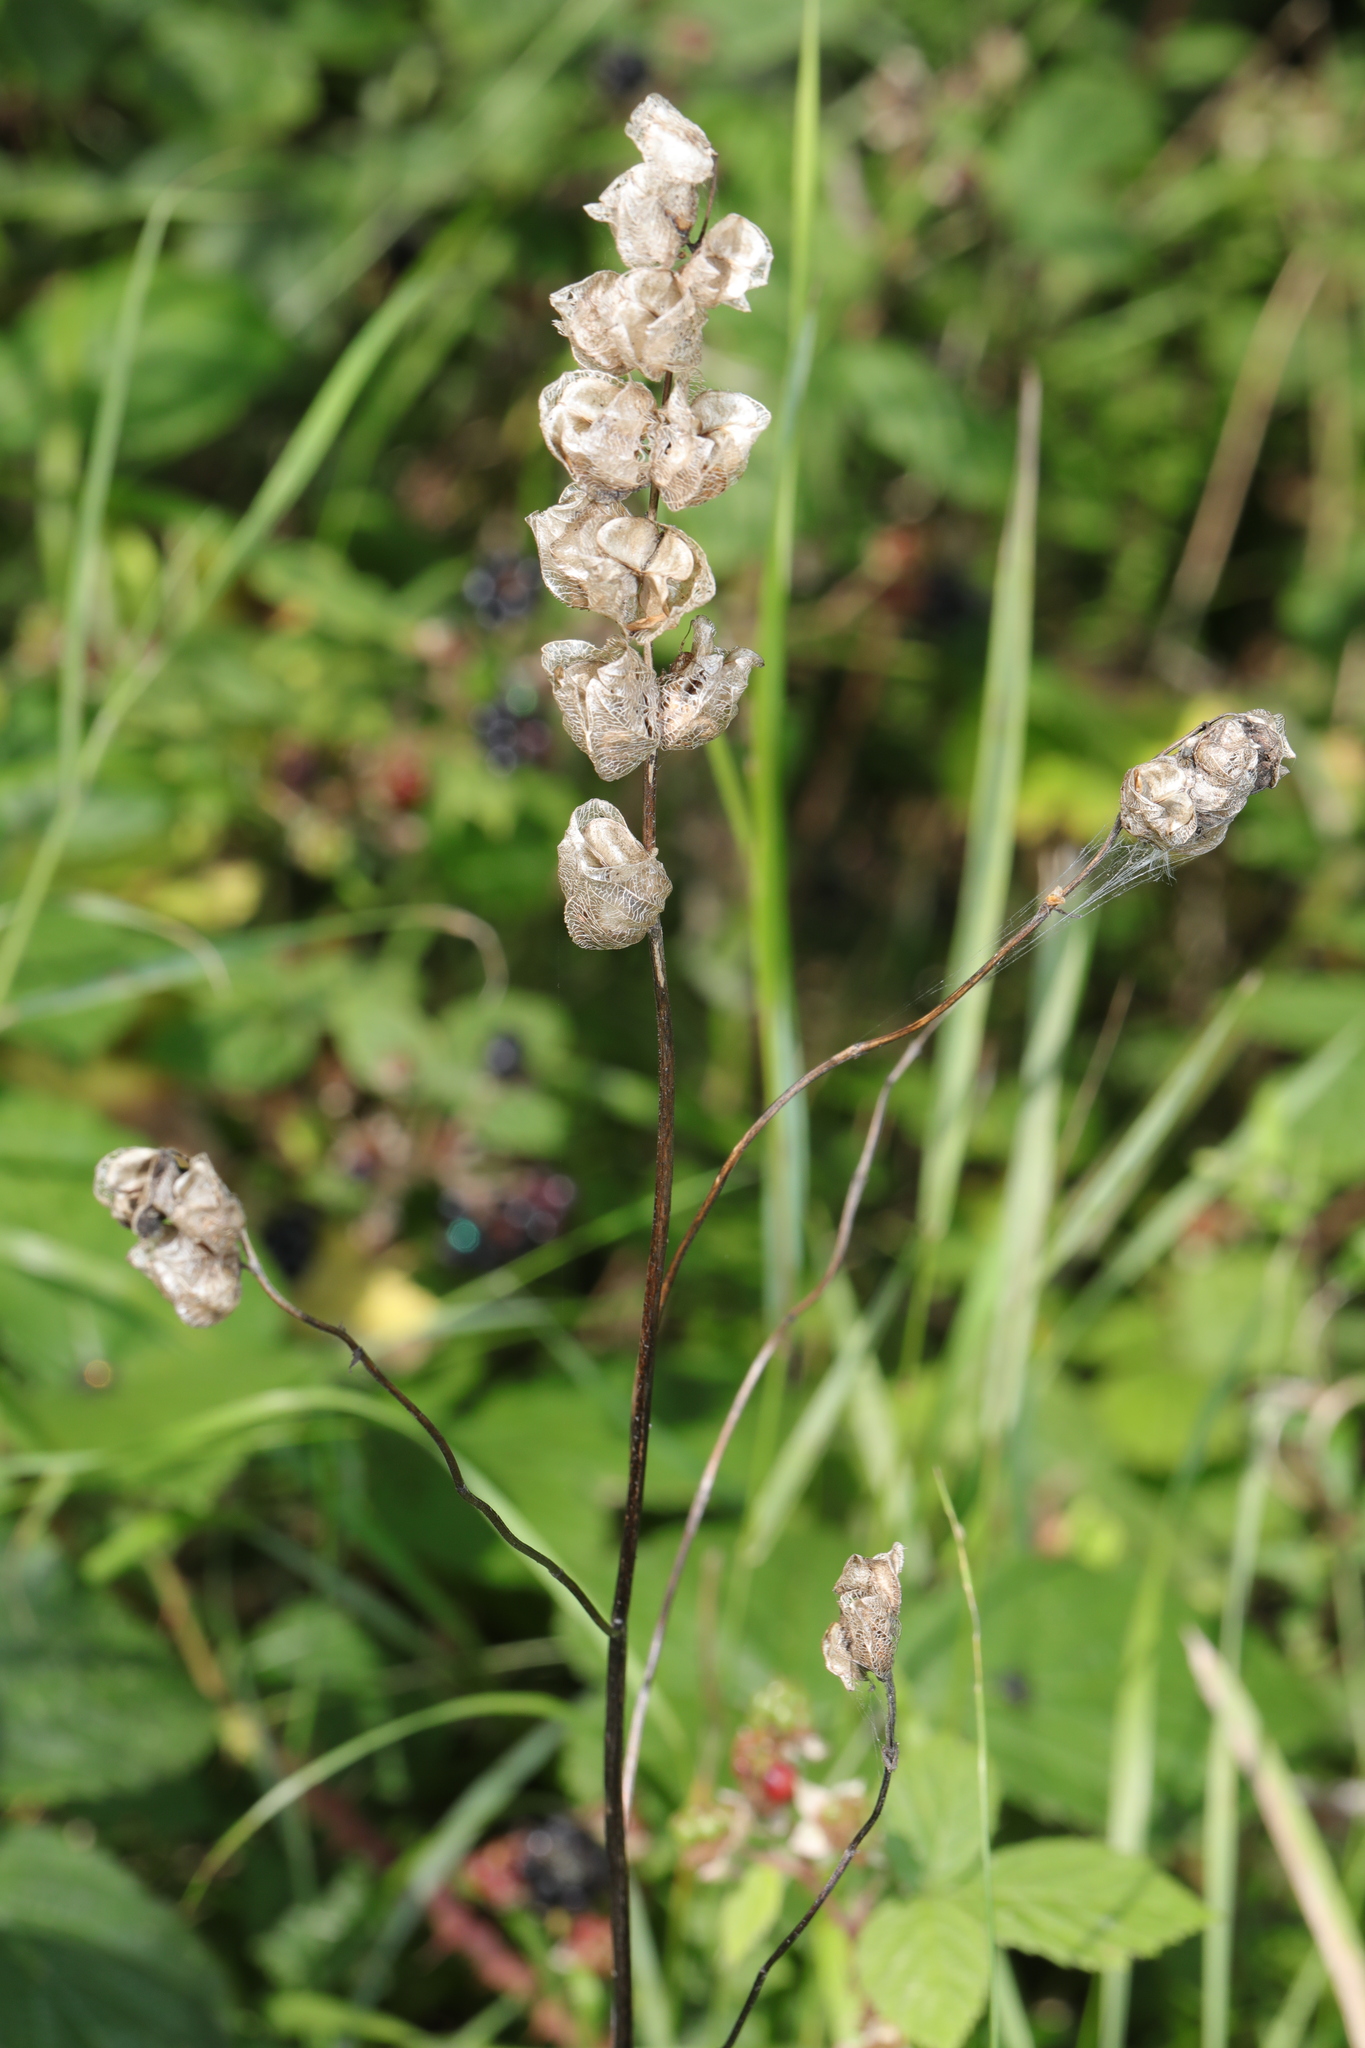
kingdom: Plantae
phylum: Tracheophyta
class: Magnoliopsida
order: Lamiales
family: Orobanchaceae
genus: Rhinanthus
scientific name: Rhinanthus minor
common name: Yellow-rattle
